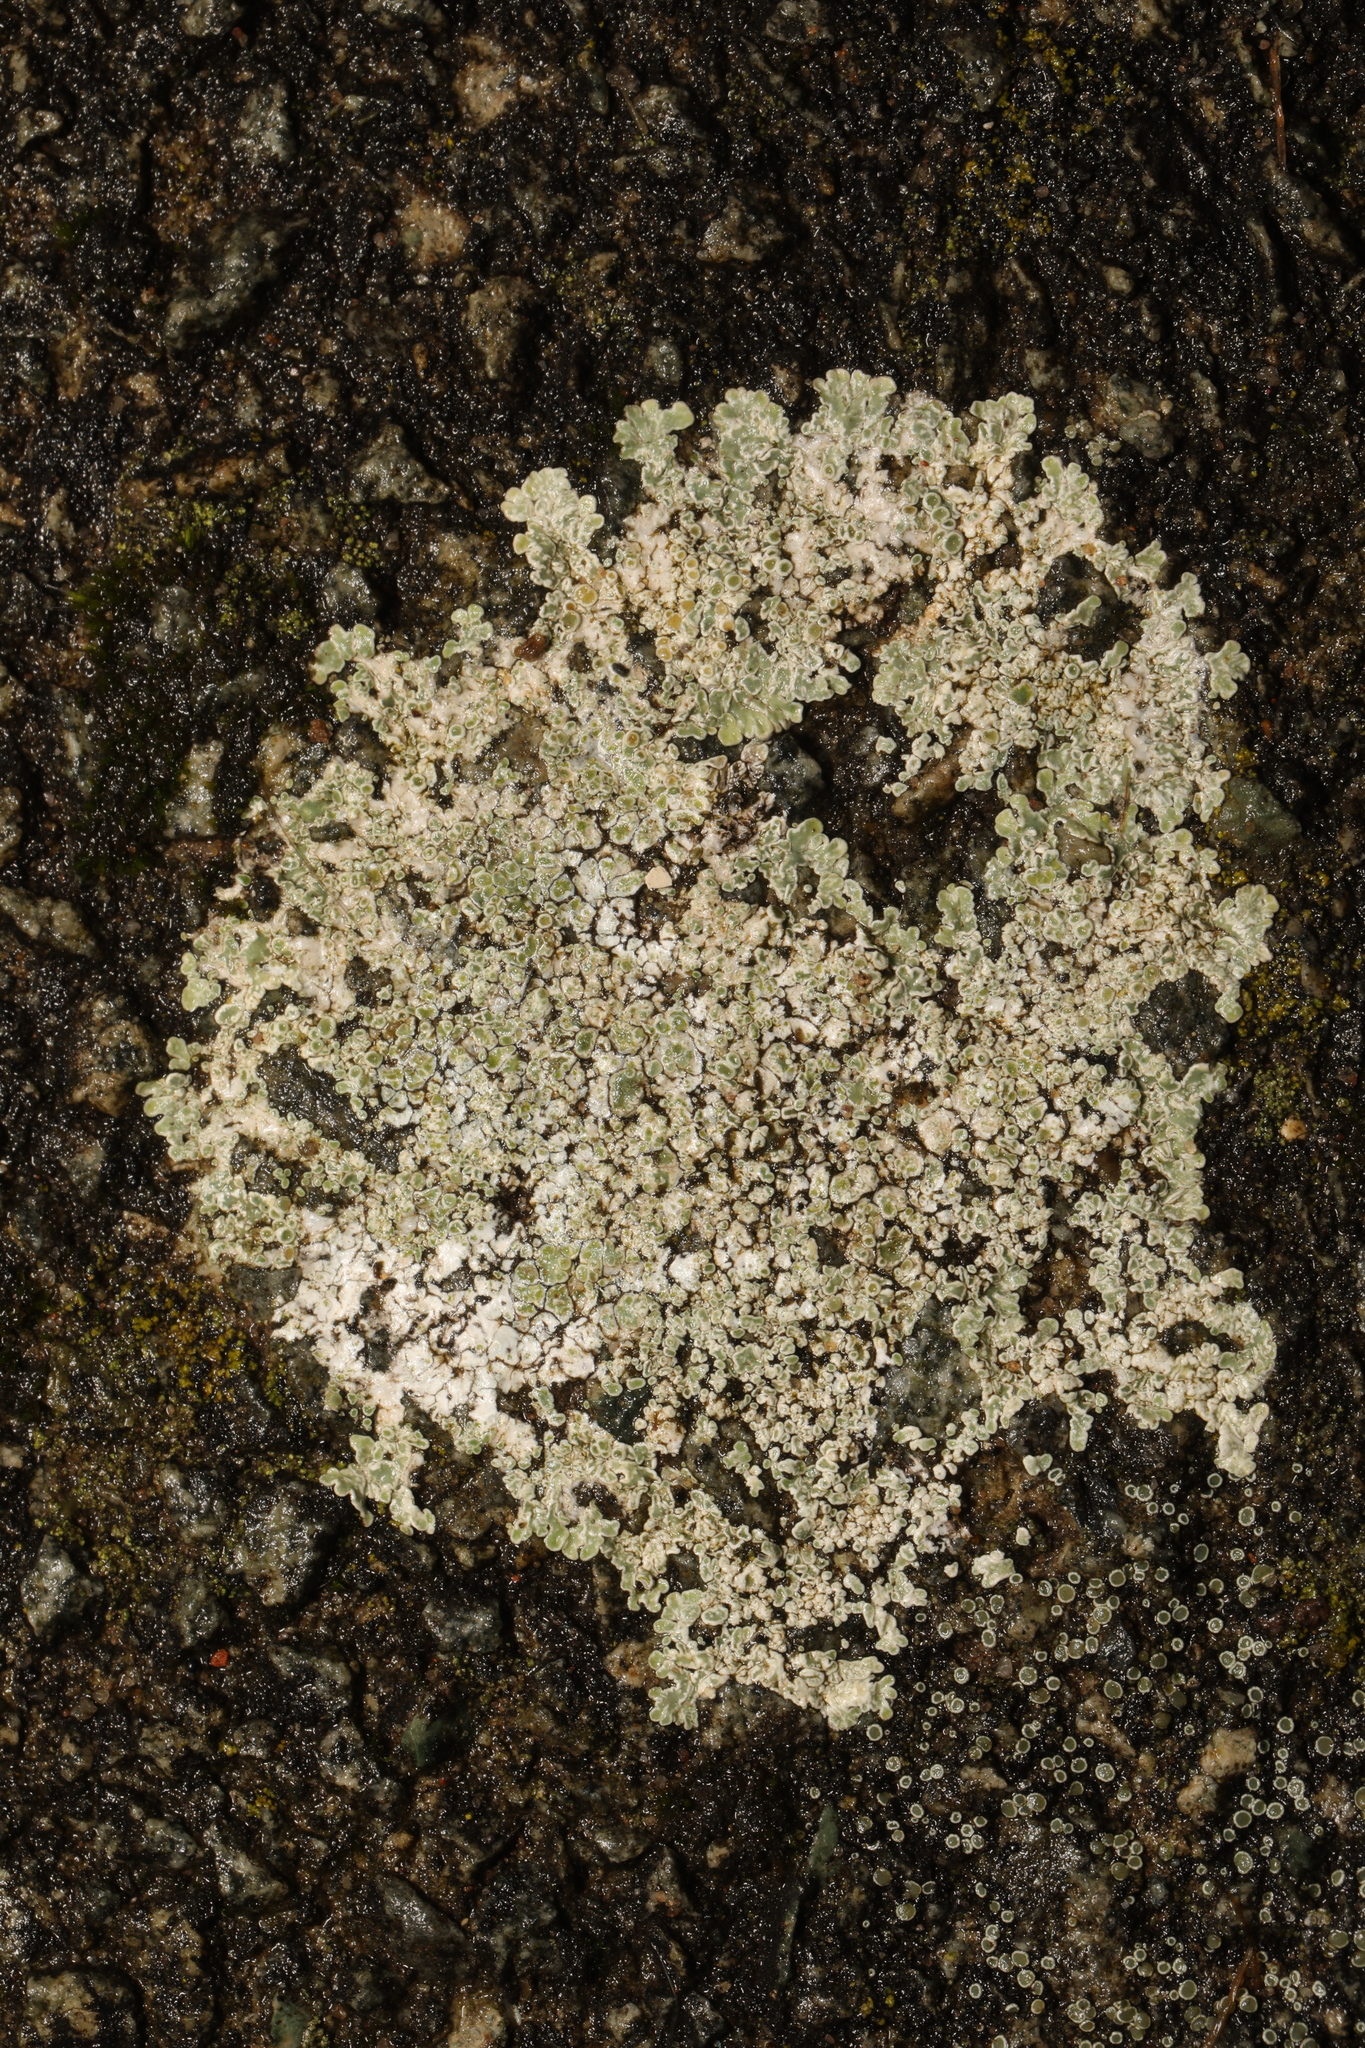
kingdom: Fungi
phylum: Ascomycota
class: Lecanoromycetes
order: Lecanorales
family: Lecanoraceae
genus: Protoparmeliopsis
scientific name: Protoparmeliopsis muralis
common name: Stonewall rim lichen
